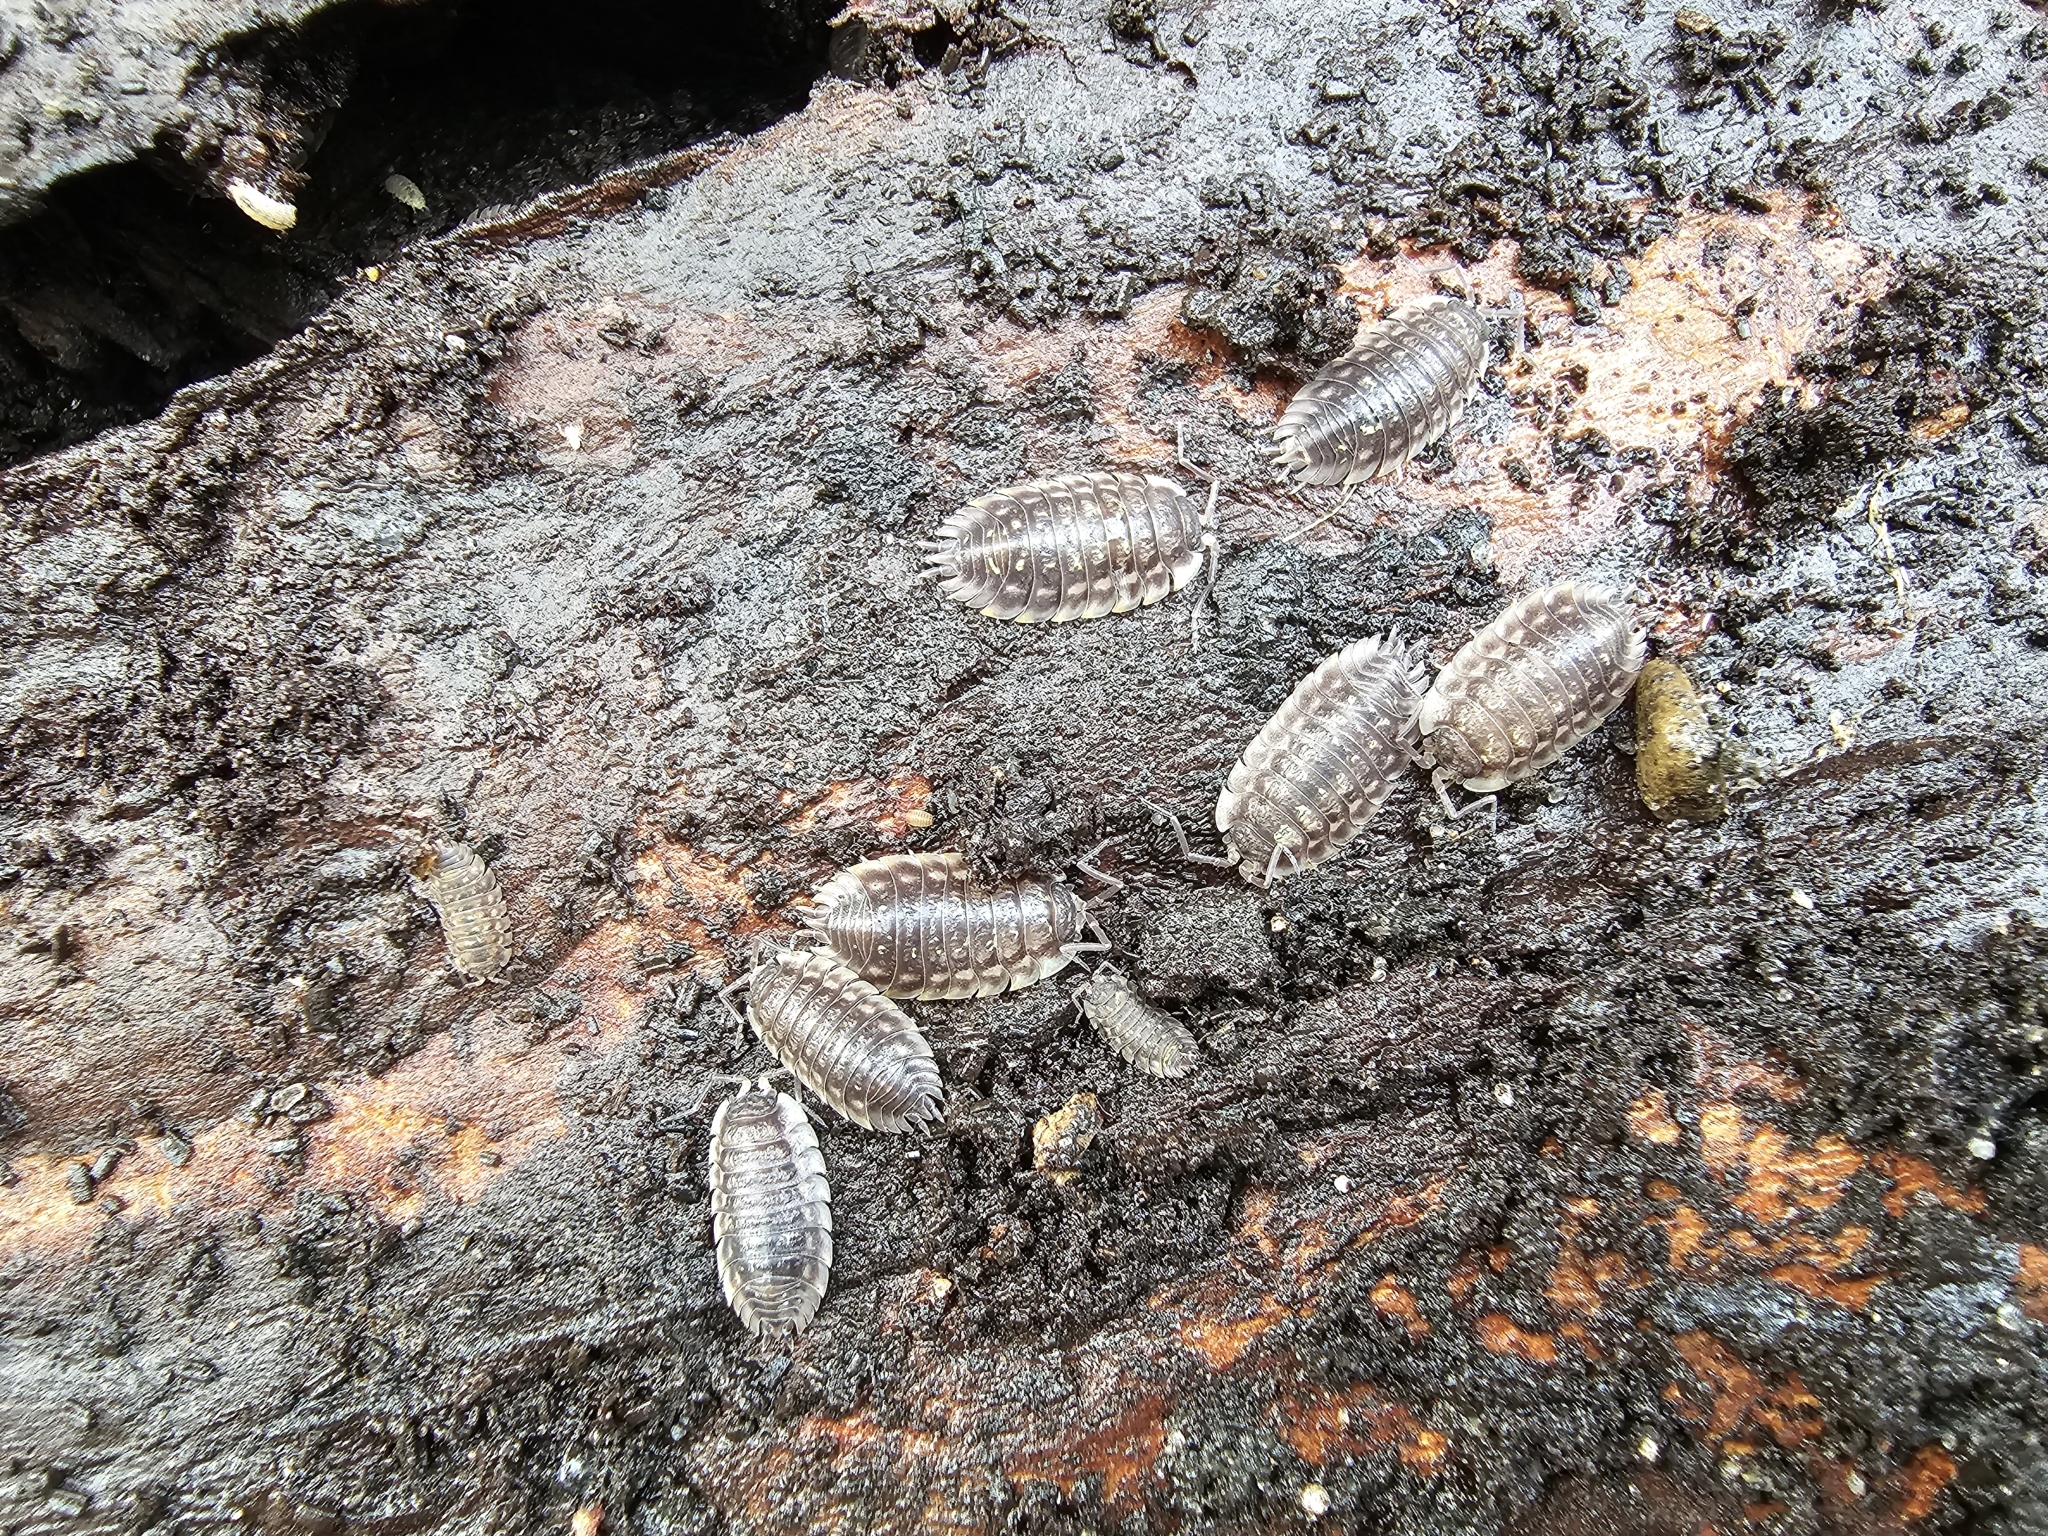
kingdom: Animalia
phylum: Arthropoda
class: Malacostraca
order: Isopoda
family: Oniscidae
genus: Oniscus
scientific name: Oniscus asellus
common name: Common shiny woodlouse
